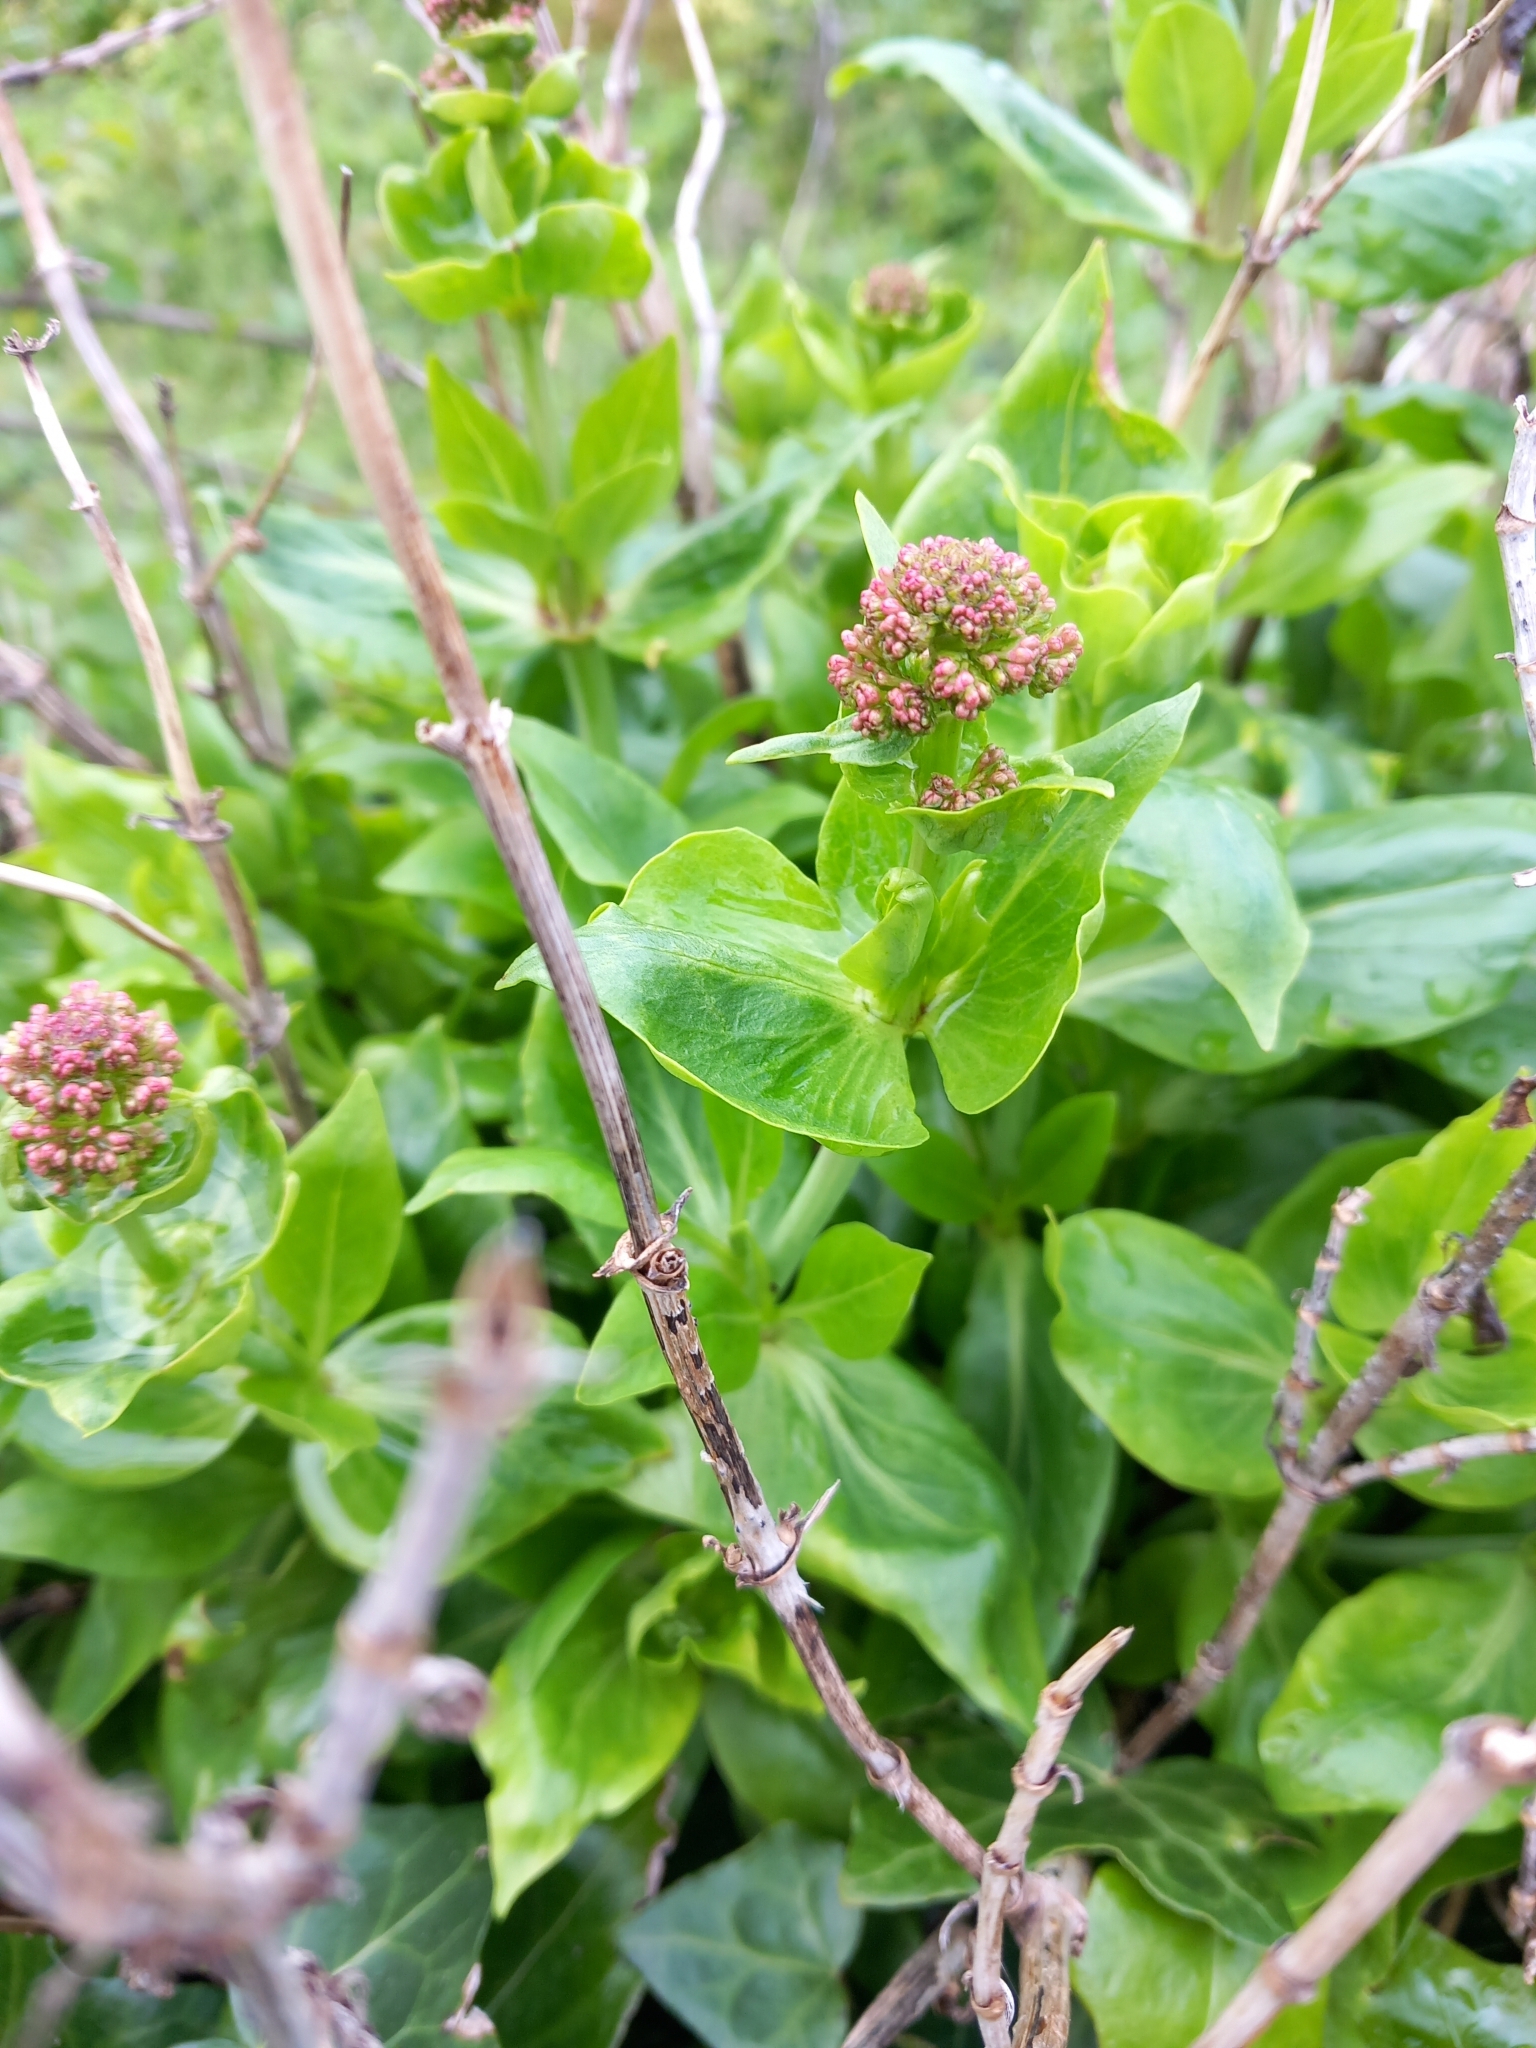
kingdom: Plantae
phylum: Tracheophyta
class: Magnoliopsida
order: Dipsacales
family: Caprifoliaceae
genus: Centranthus
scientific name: Centranthus ruber
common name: Red valerian
